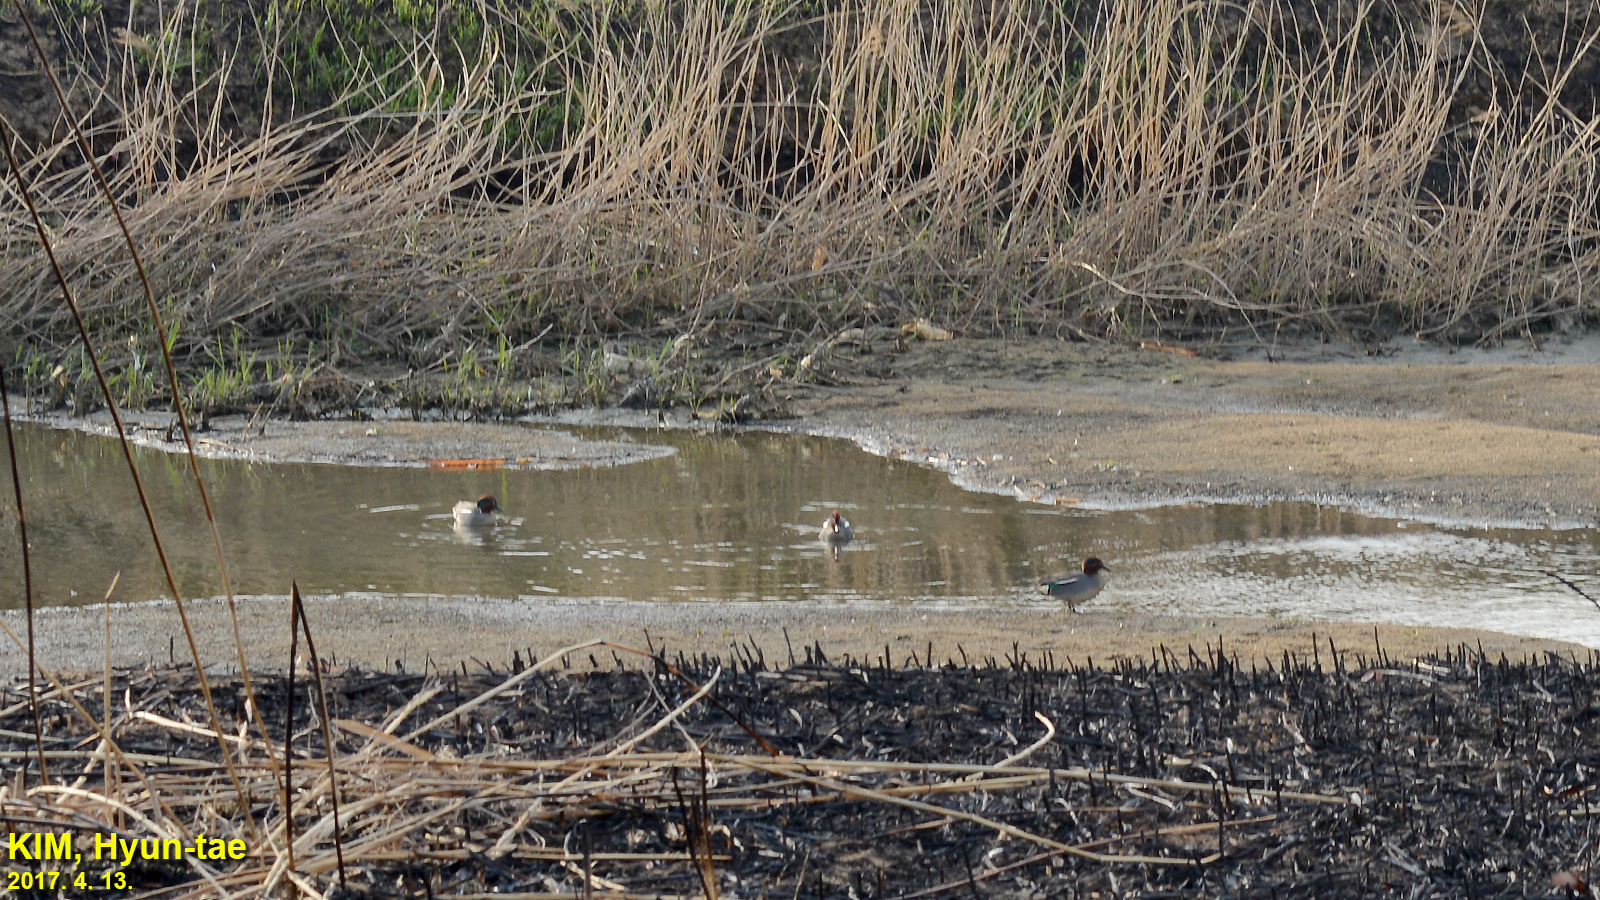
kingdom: Animalia
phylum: Chordata
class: Aves
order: Anseriformes
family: Anatidae
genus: Anas
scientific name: Anas crecca
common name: Eurasian teal
